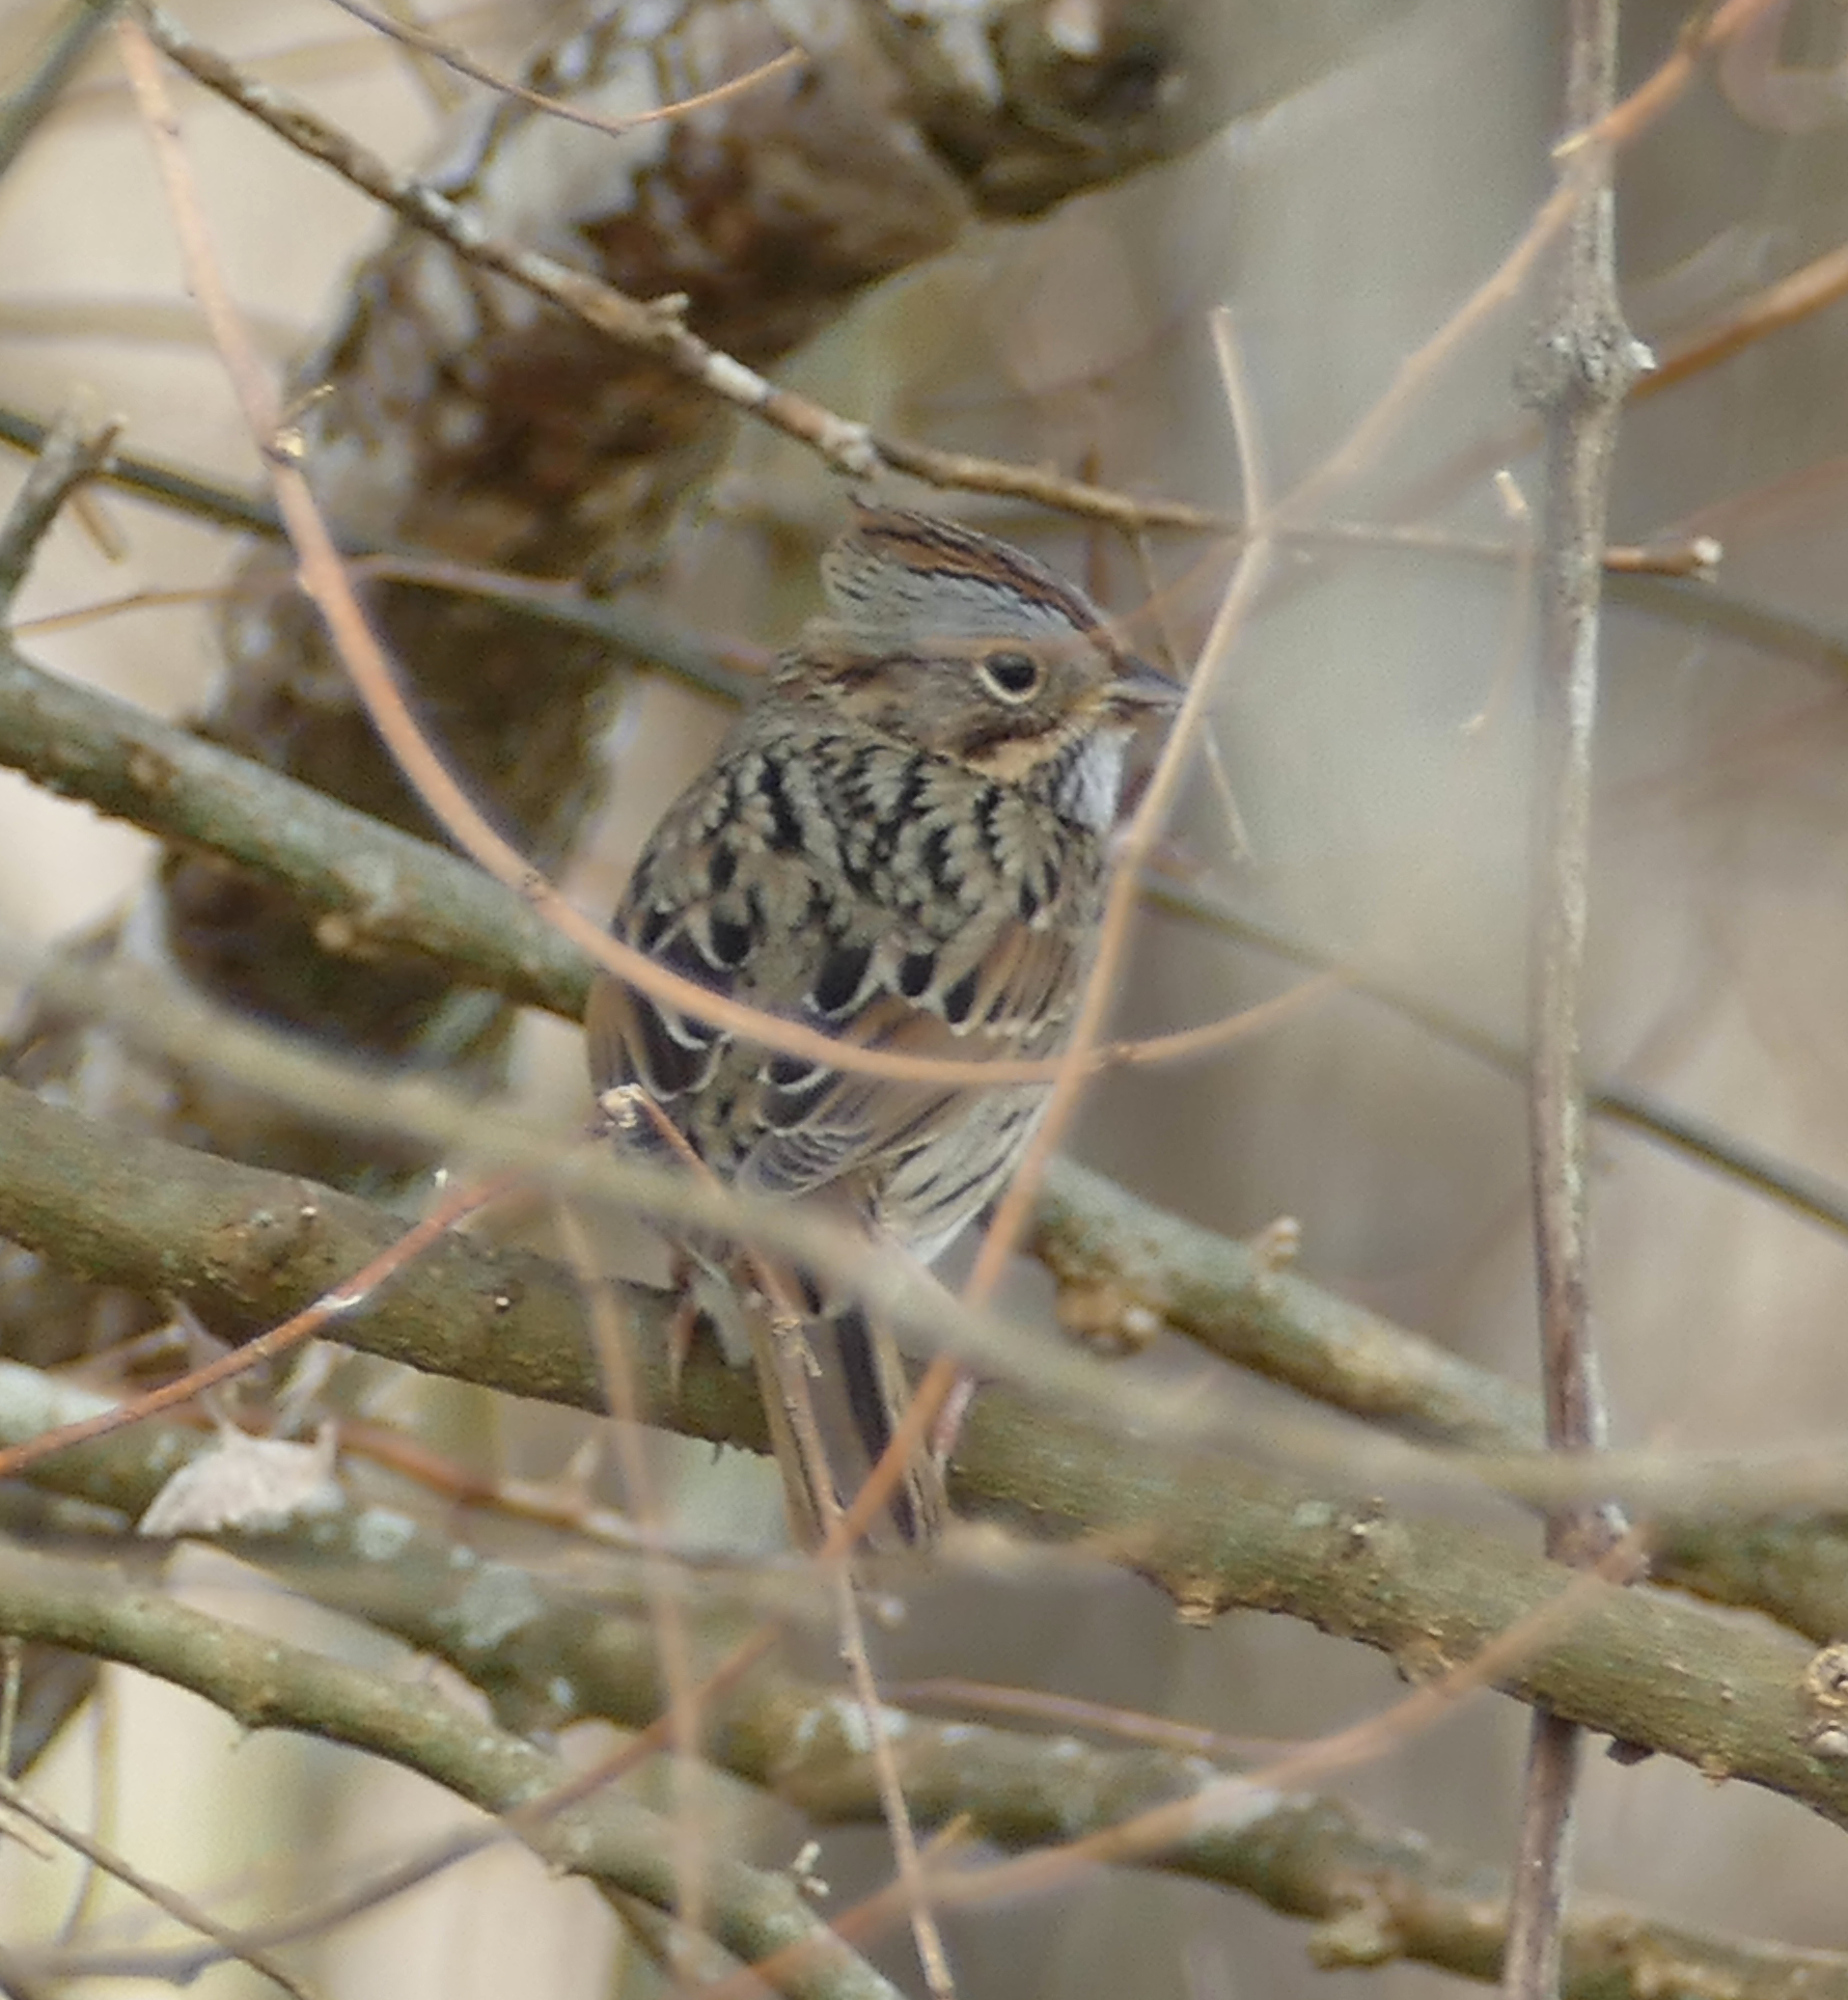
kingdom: Animalia
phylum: Chordata
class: Aves
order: Passeriformes
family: Passerellidae
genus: Melospiza
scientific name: Melospiza lincolnii
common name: Lincoln's sparrow
